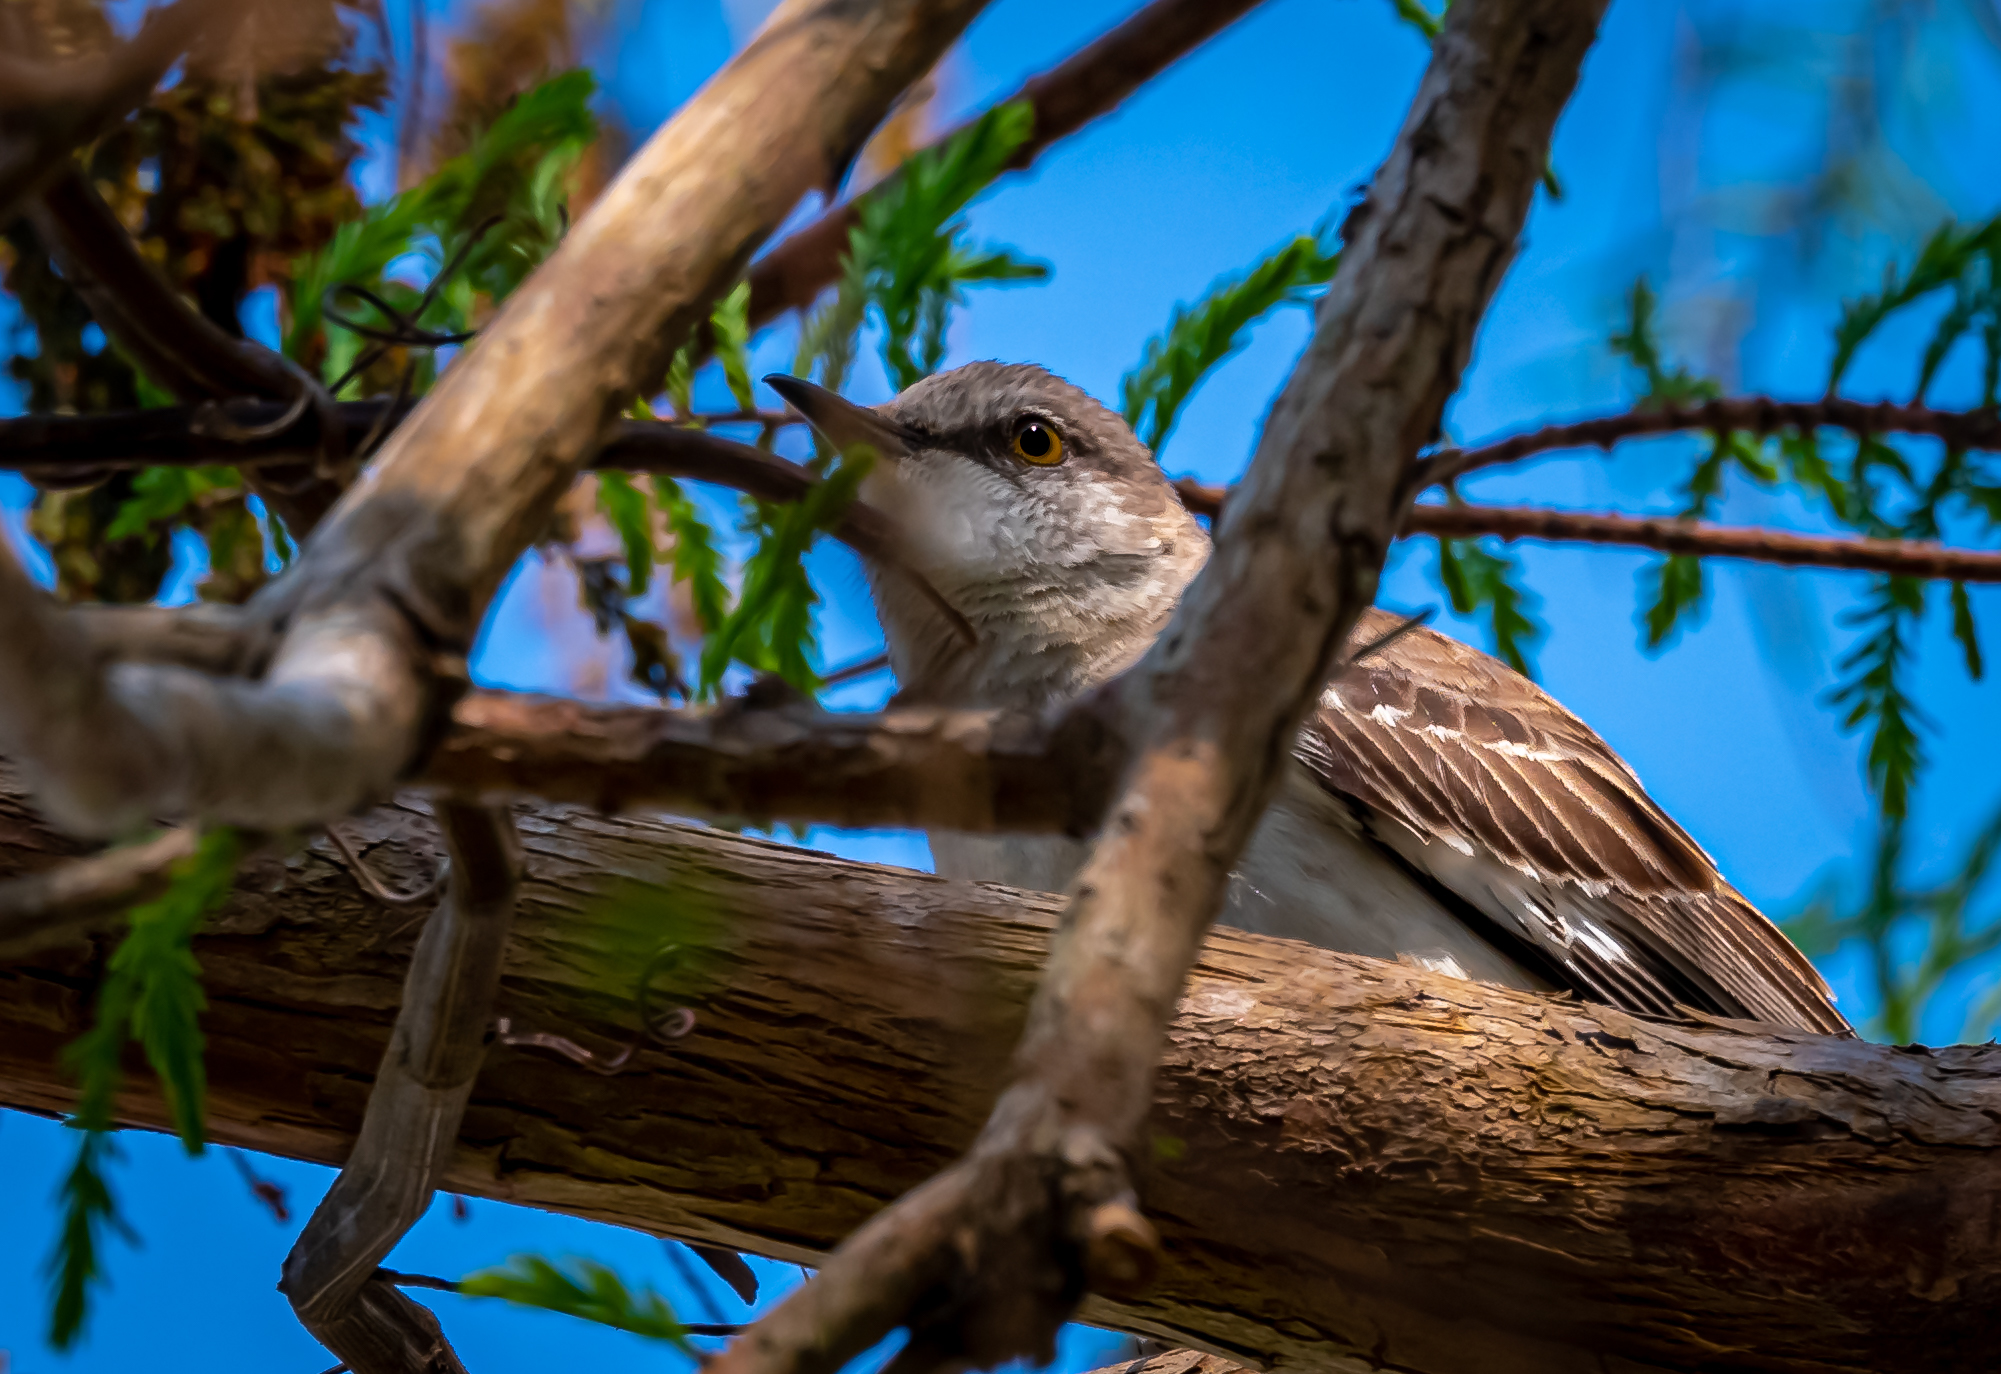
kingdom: Animalia
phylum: Chordata
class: Aves
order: Passeriformes
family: Mimidae
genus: Mimus
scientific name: Mimus polyglottos
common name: Northern mockingbird
